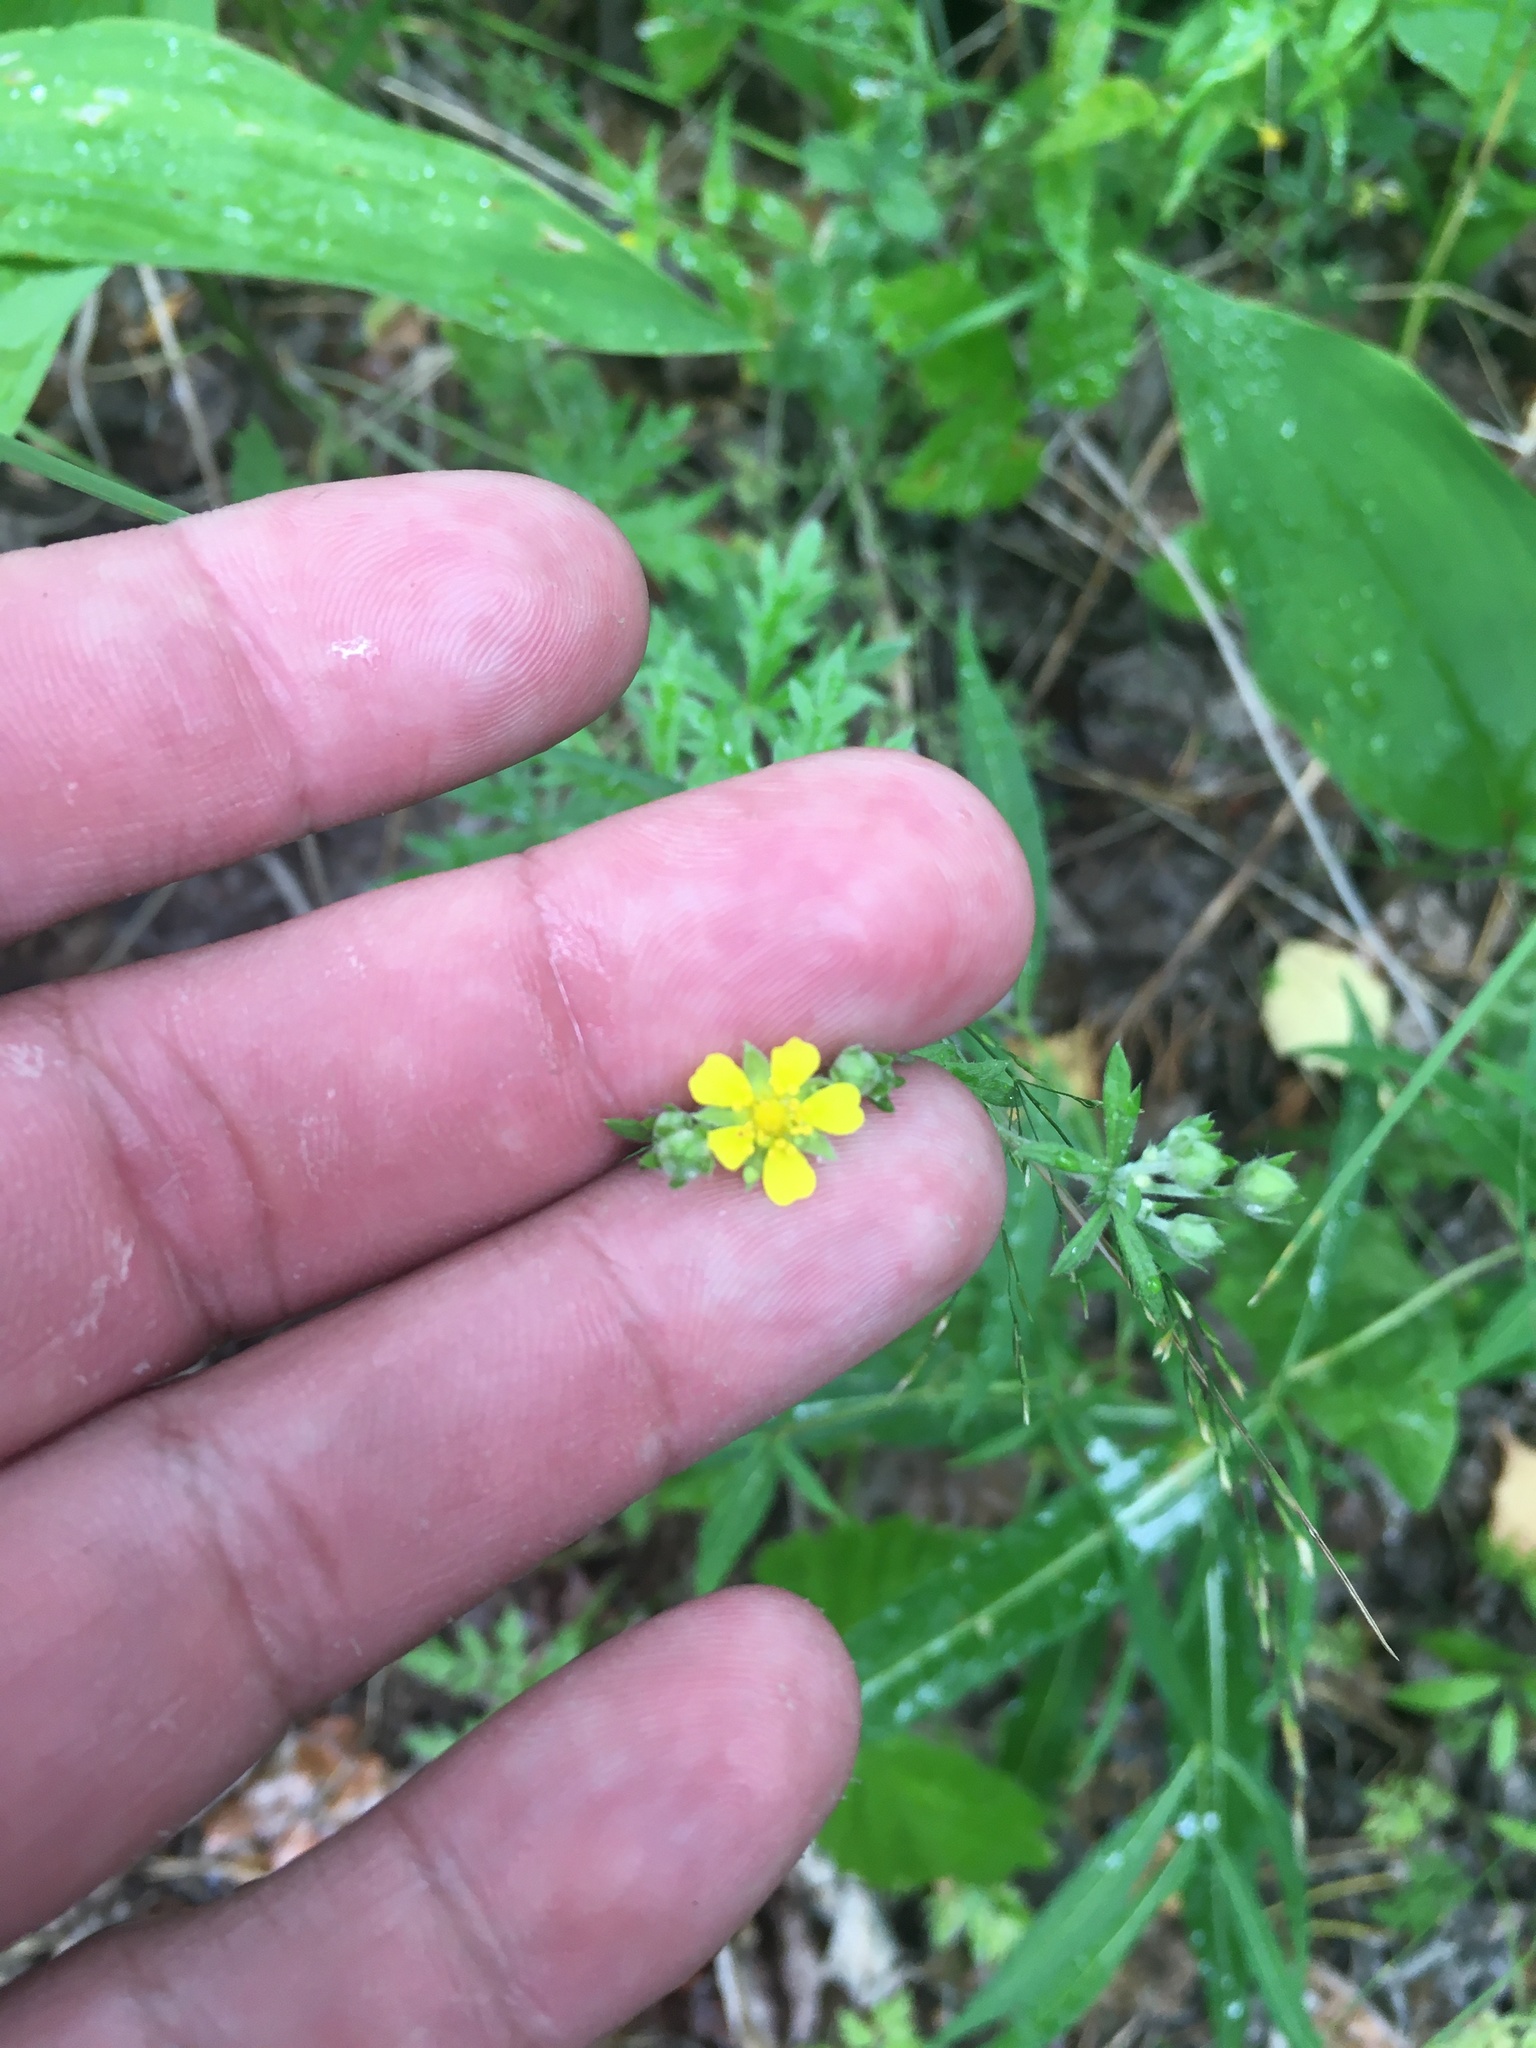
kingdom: Plantae
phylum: Tracheophyta
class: Magnoliopsida
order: Rosales
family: Rosaceae
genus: Potentilla
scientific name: Potentilla argentea
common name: Hoary cinquefoil
